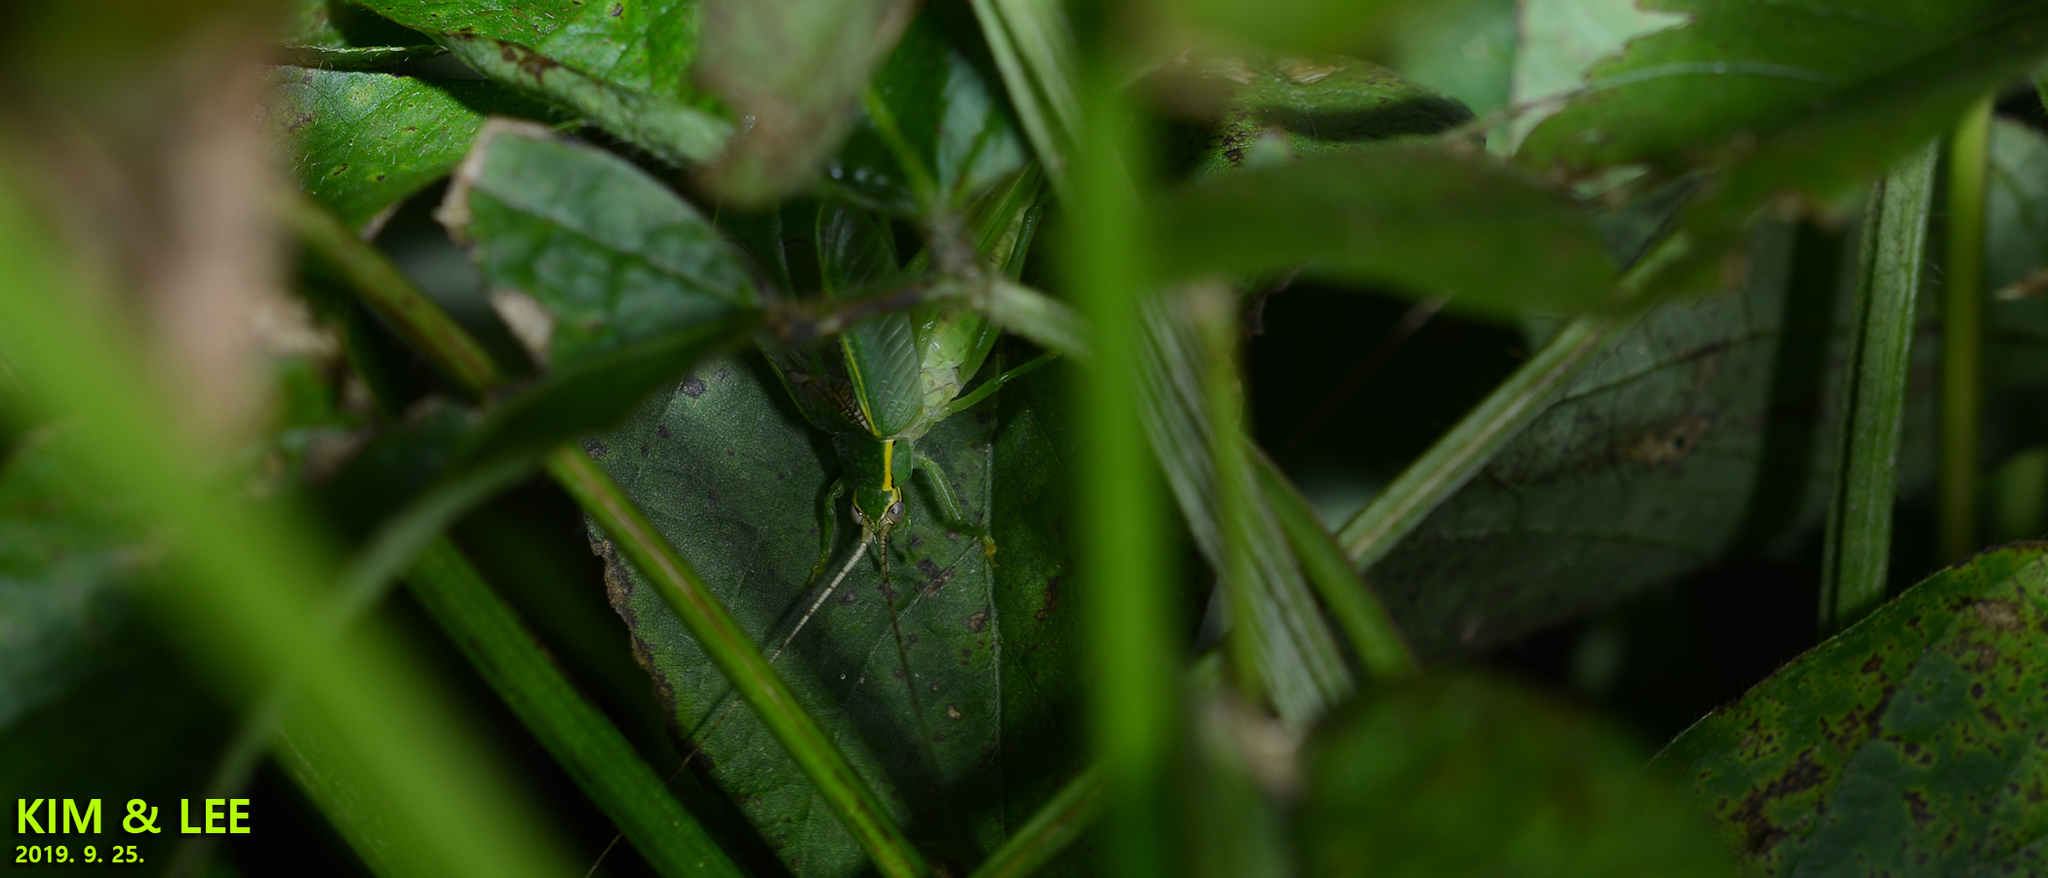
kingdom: Animalia
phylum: Arthropoda
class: Insecta
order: Orthoptera
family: Gryllidae
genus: Truljalia
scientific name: Truljalia hibinonis
